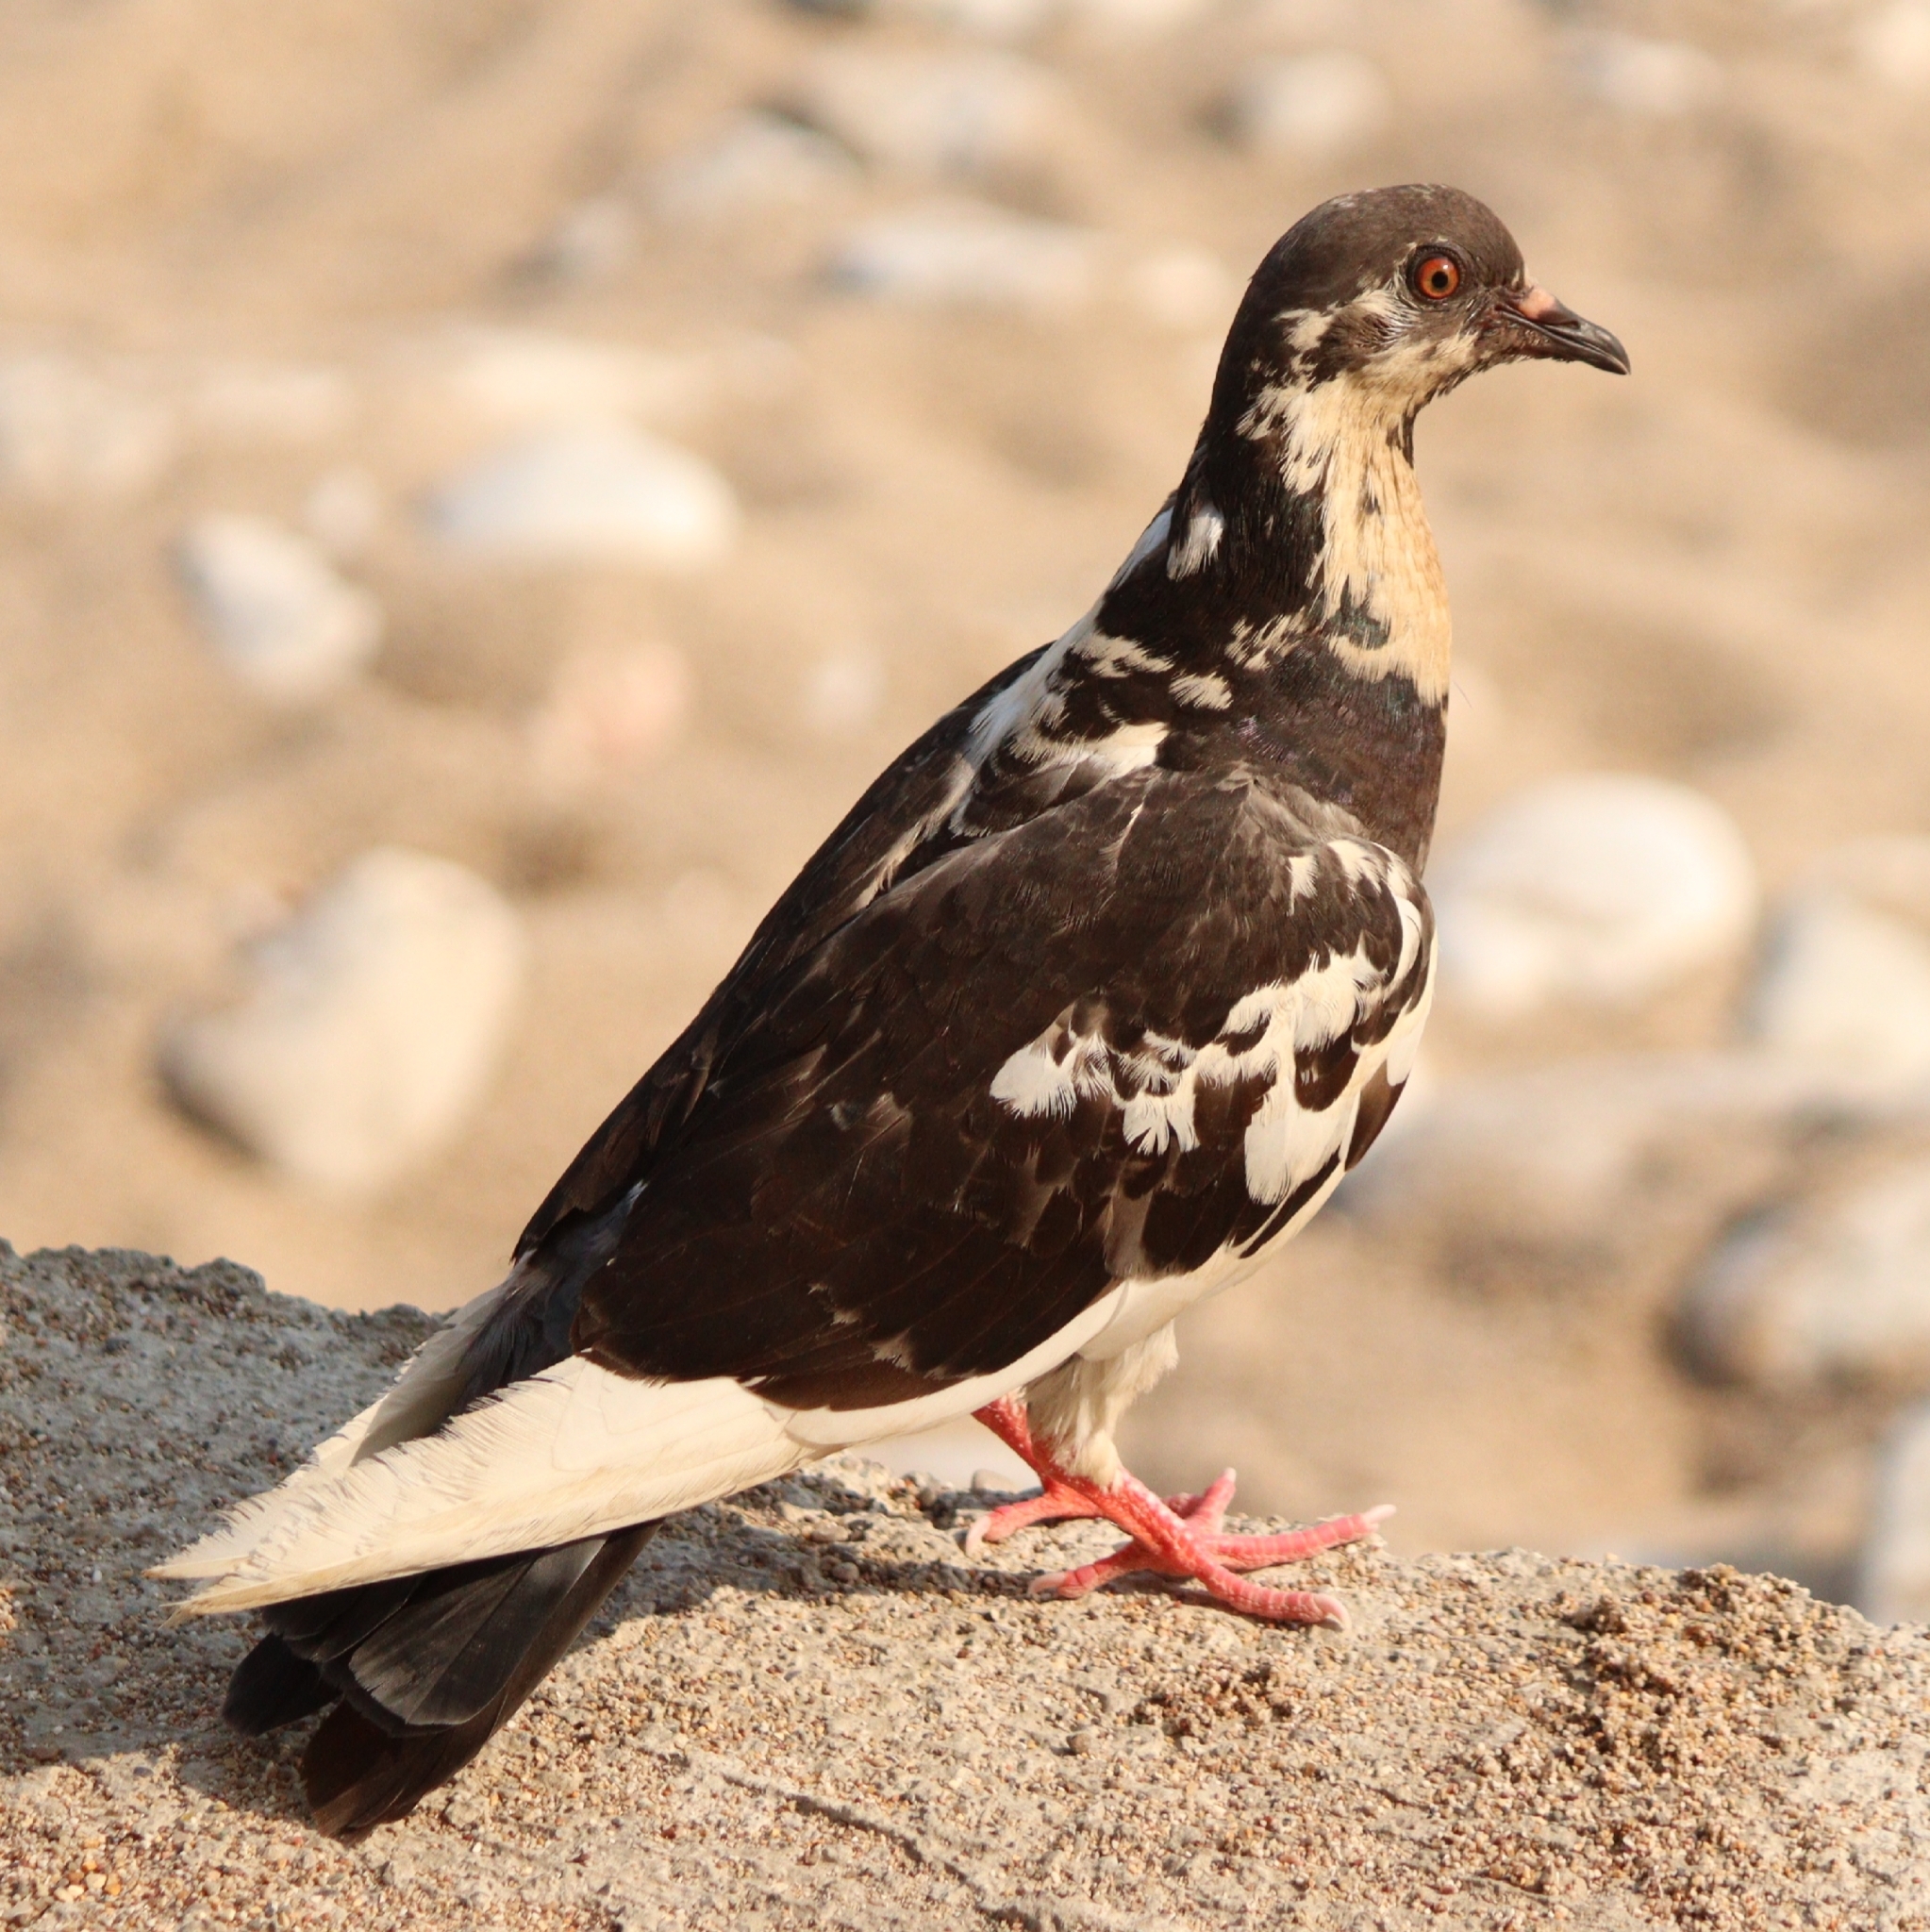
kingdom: Animalia
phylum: Chordata
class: Aves
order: Columbiformes
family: Columbidae
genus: Columba
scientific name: Columba livia
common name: Rock pigeon
